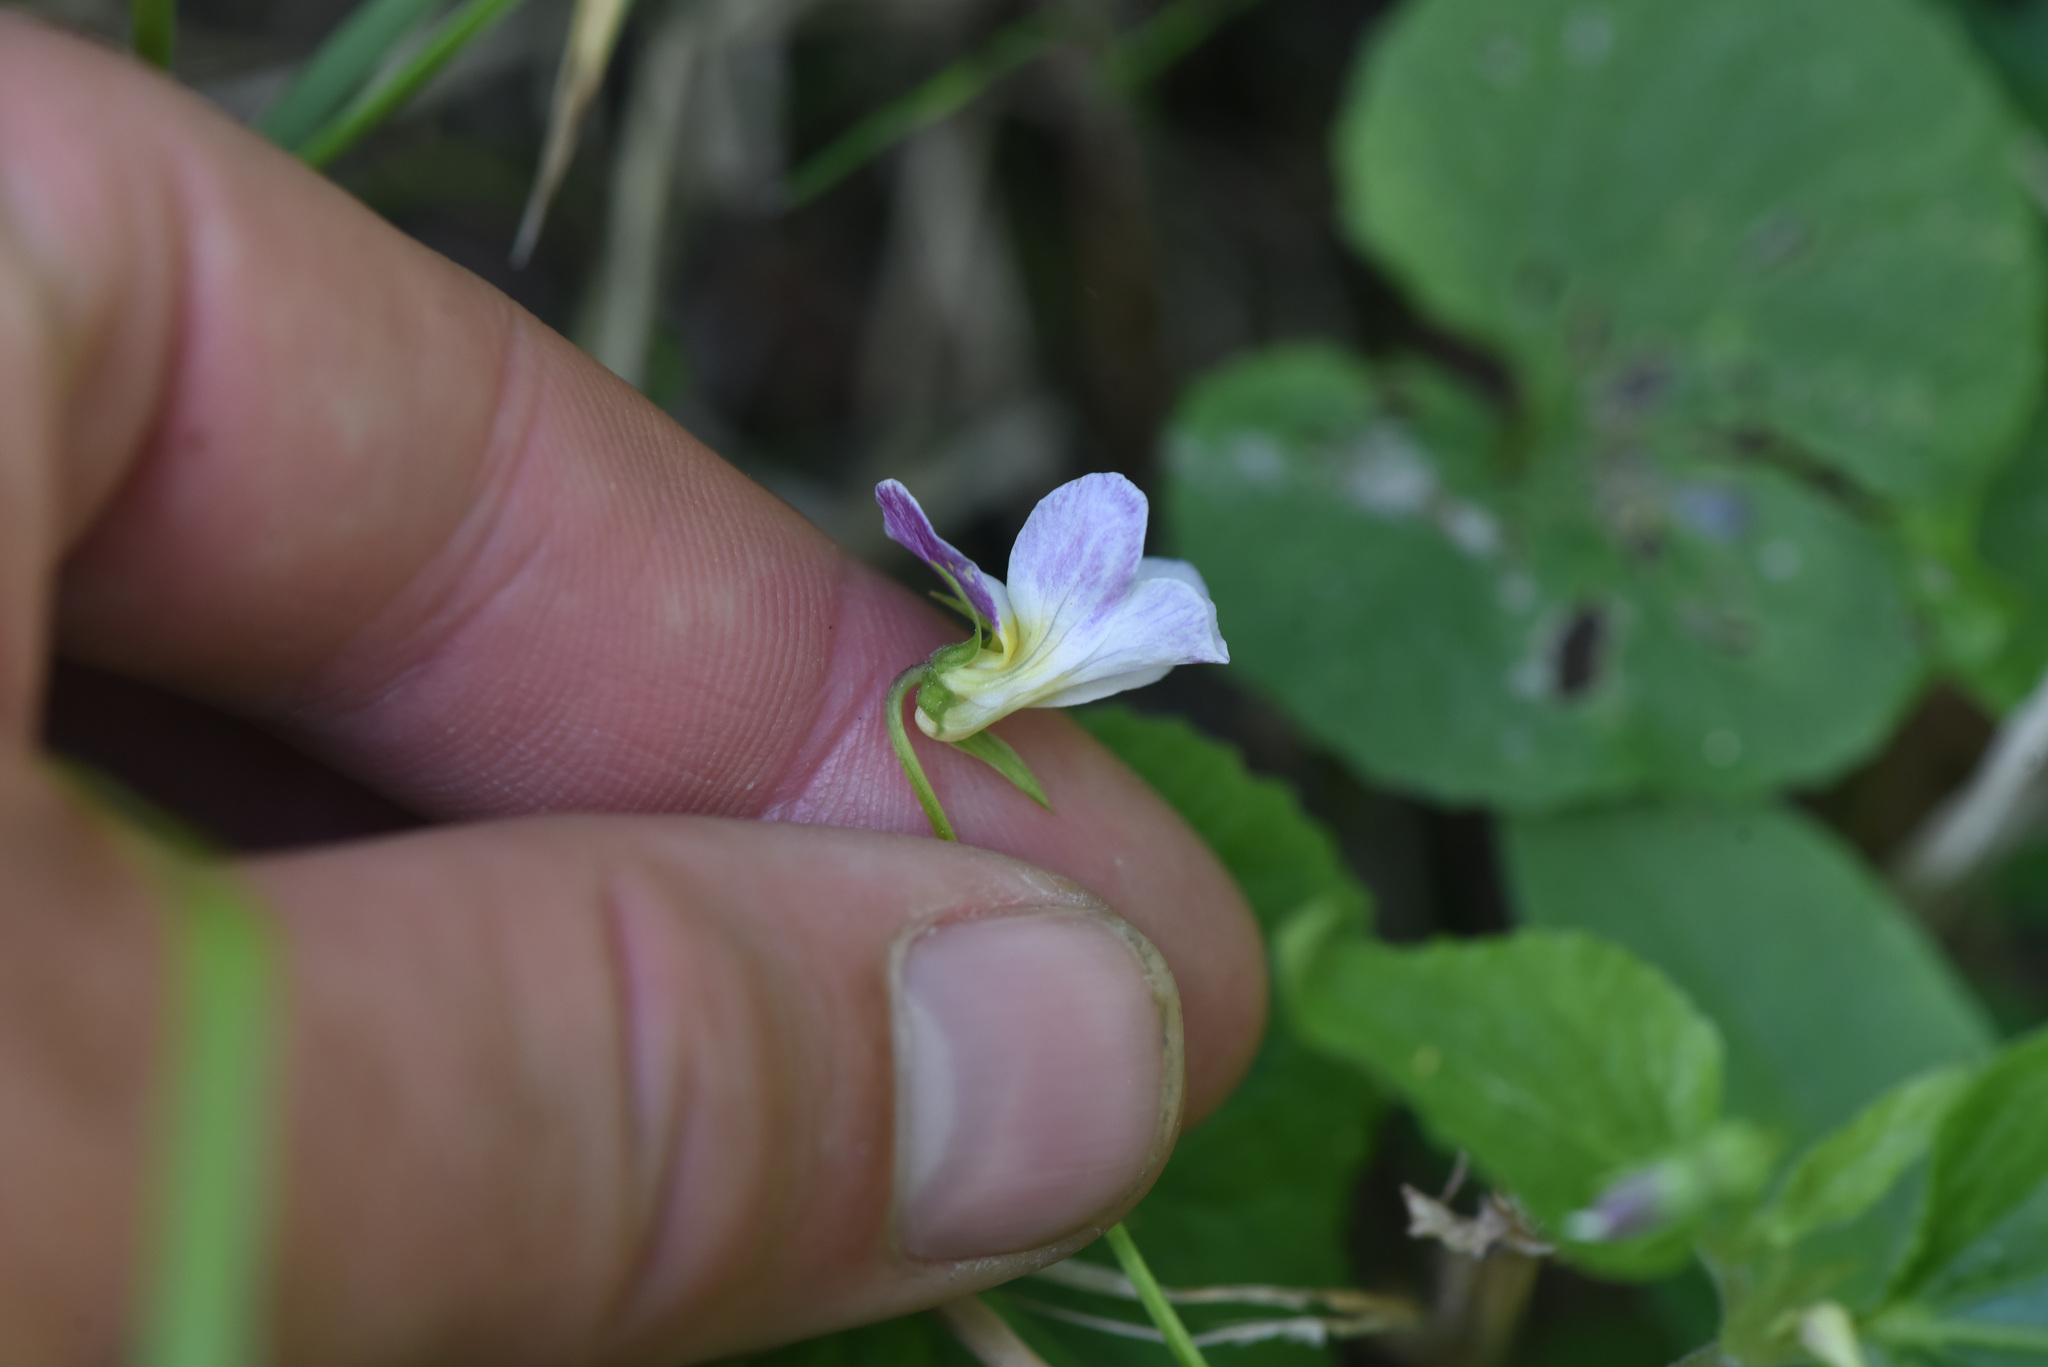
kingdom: Plantae
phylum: Tracheophyta
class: Magnoliopsida
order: Malpighiales
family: Violaceae
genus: Viola
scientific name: Viola canadensis
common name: Canada violet
